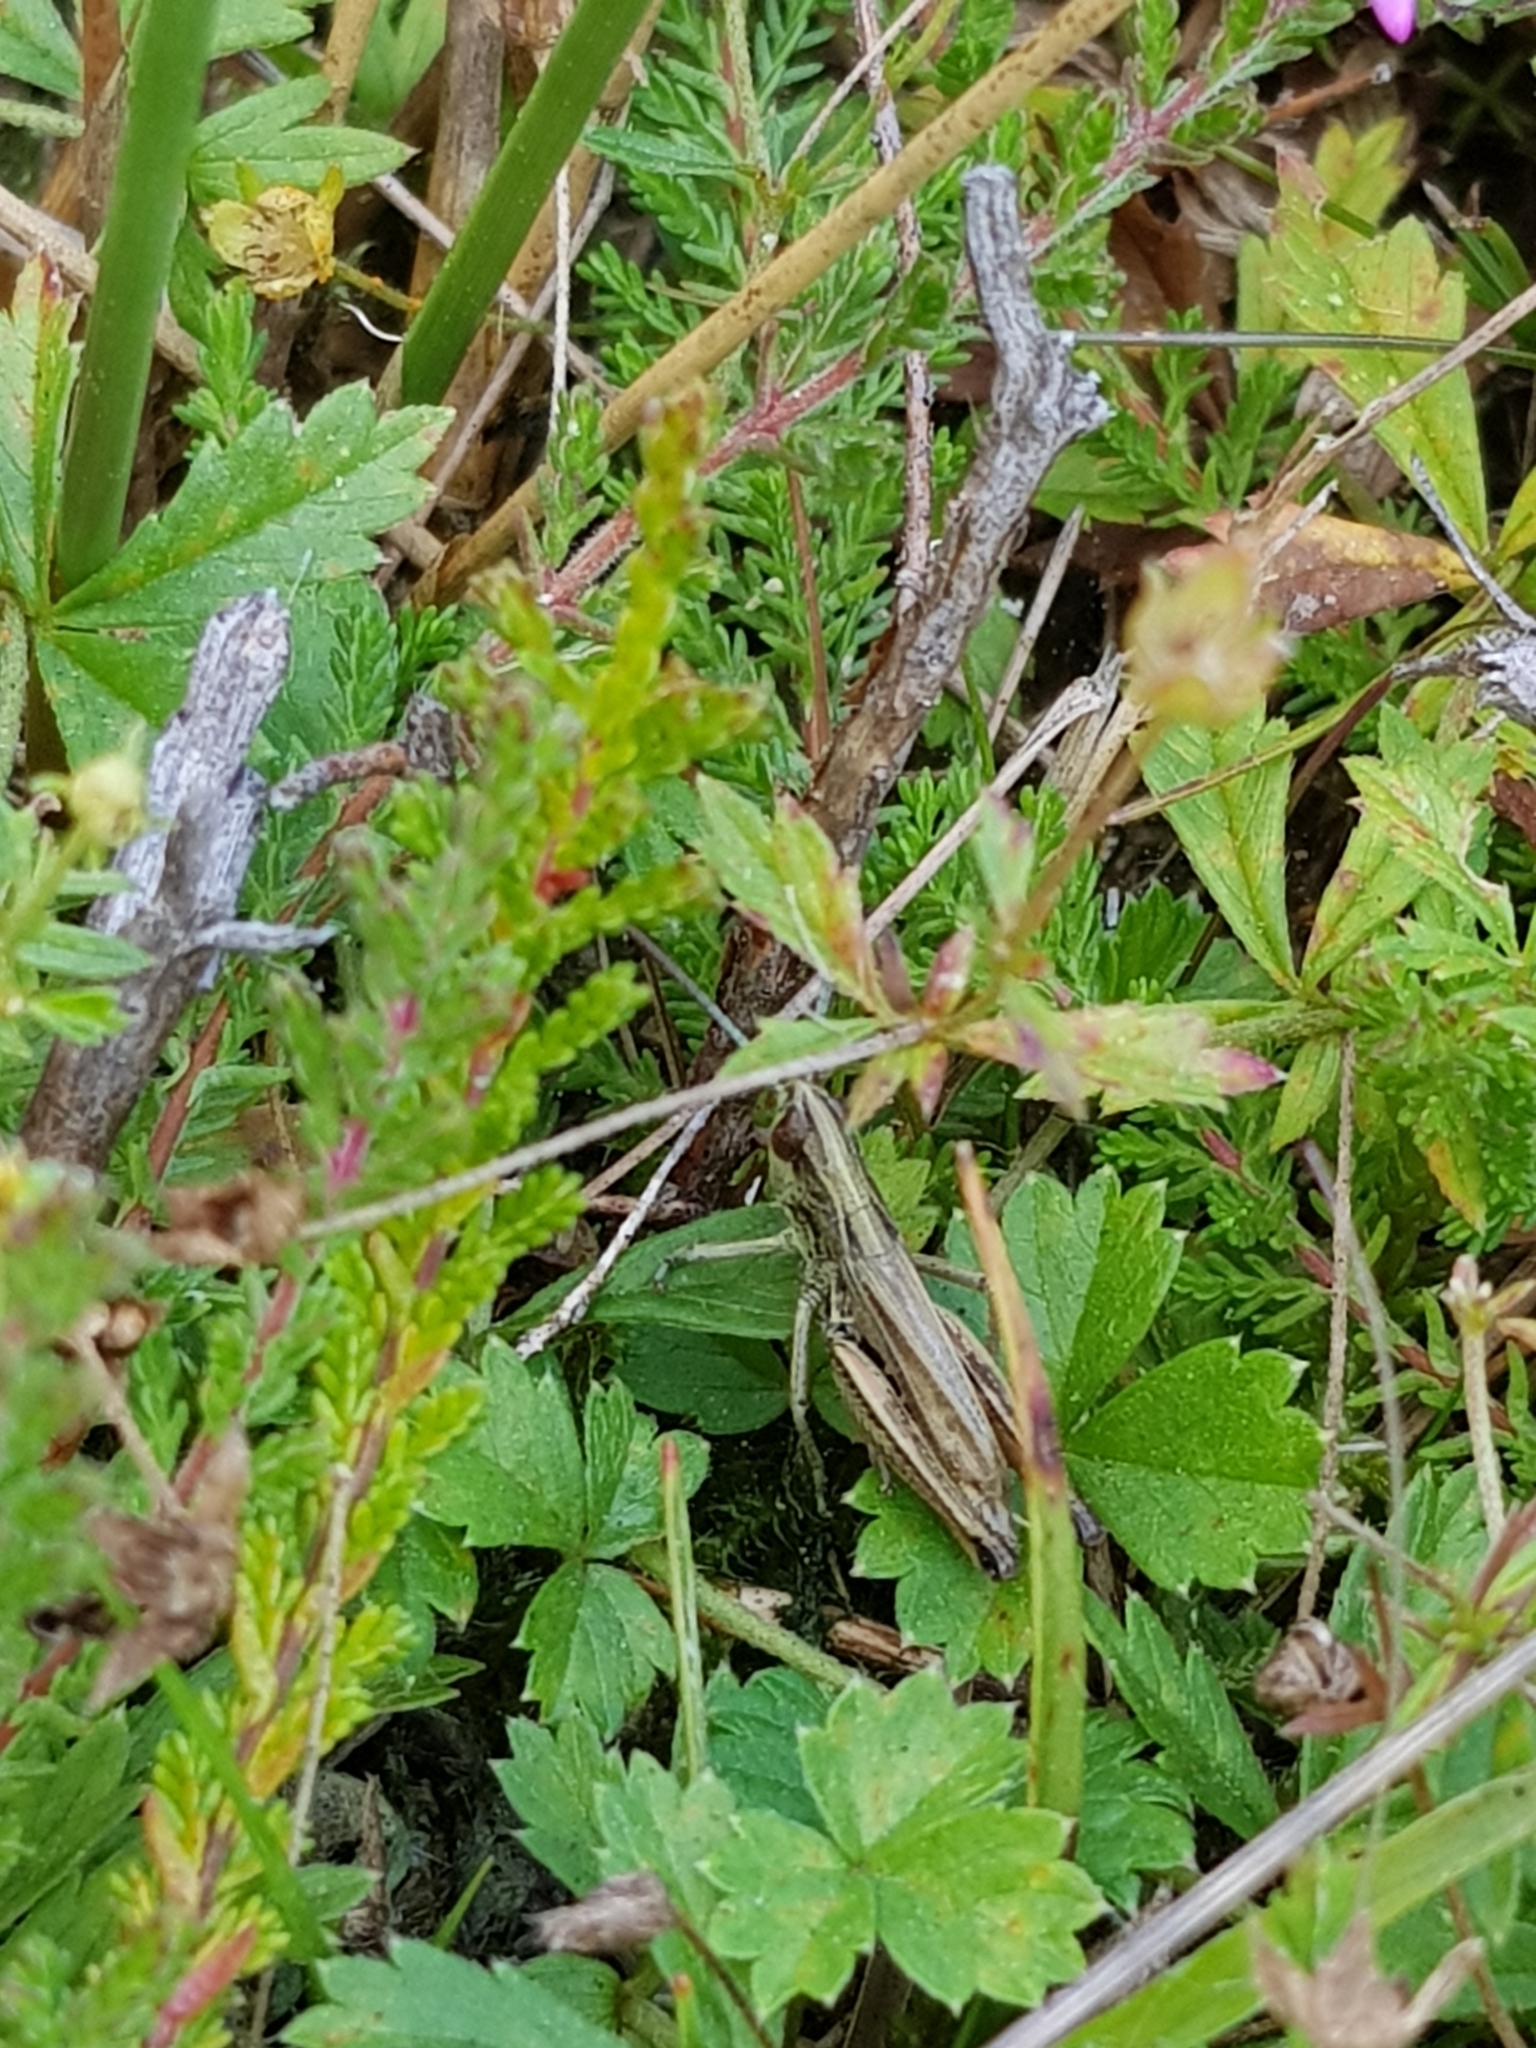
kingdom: Animalia
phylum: Arthropoda
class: Insecta
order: Orthoptera
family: Acrididae
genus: Pseudochorthippus
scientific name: Pseudochorthippus parallelus
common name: Meadow grasshopper
